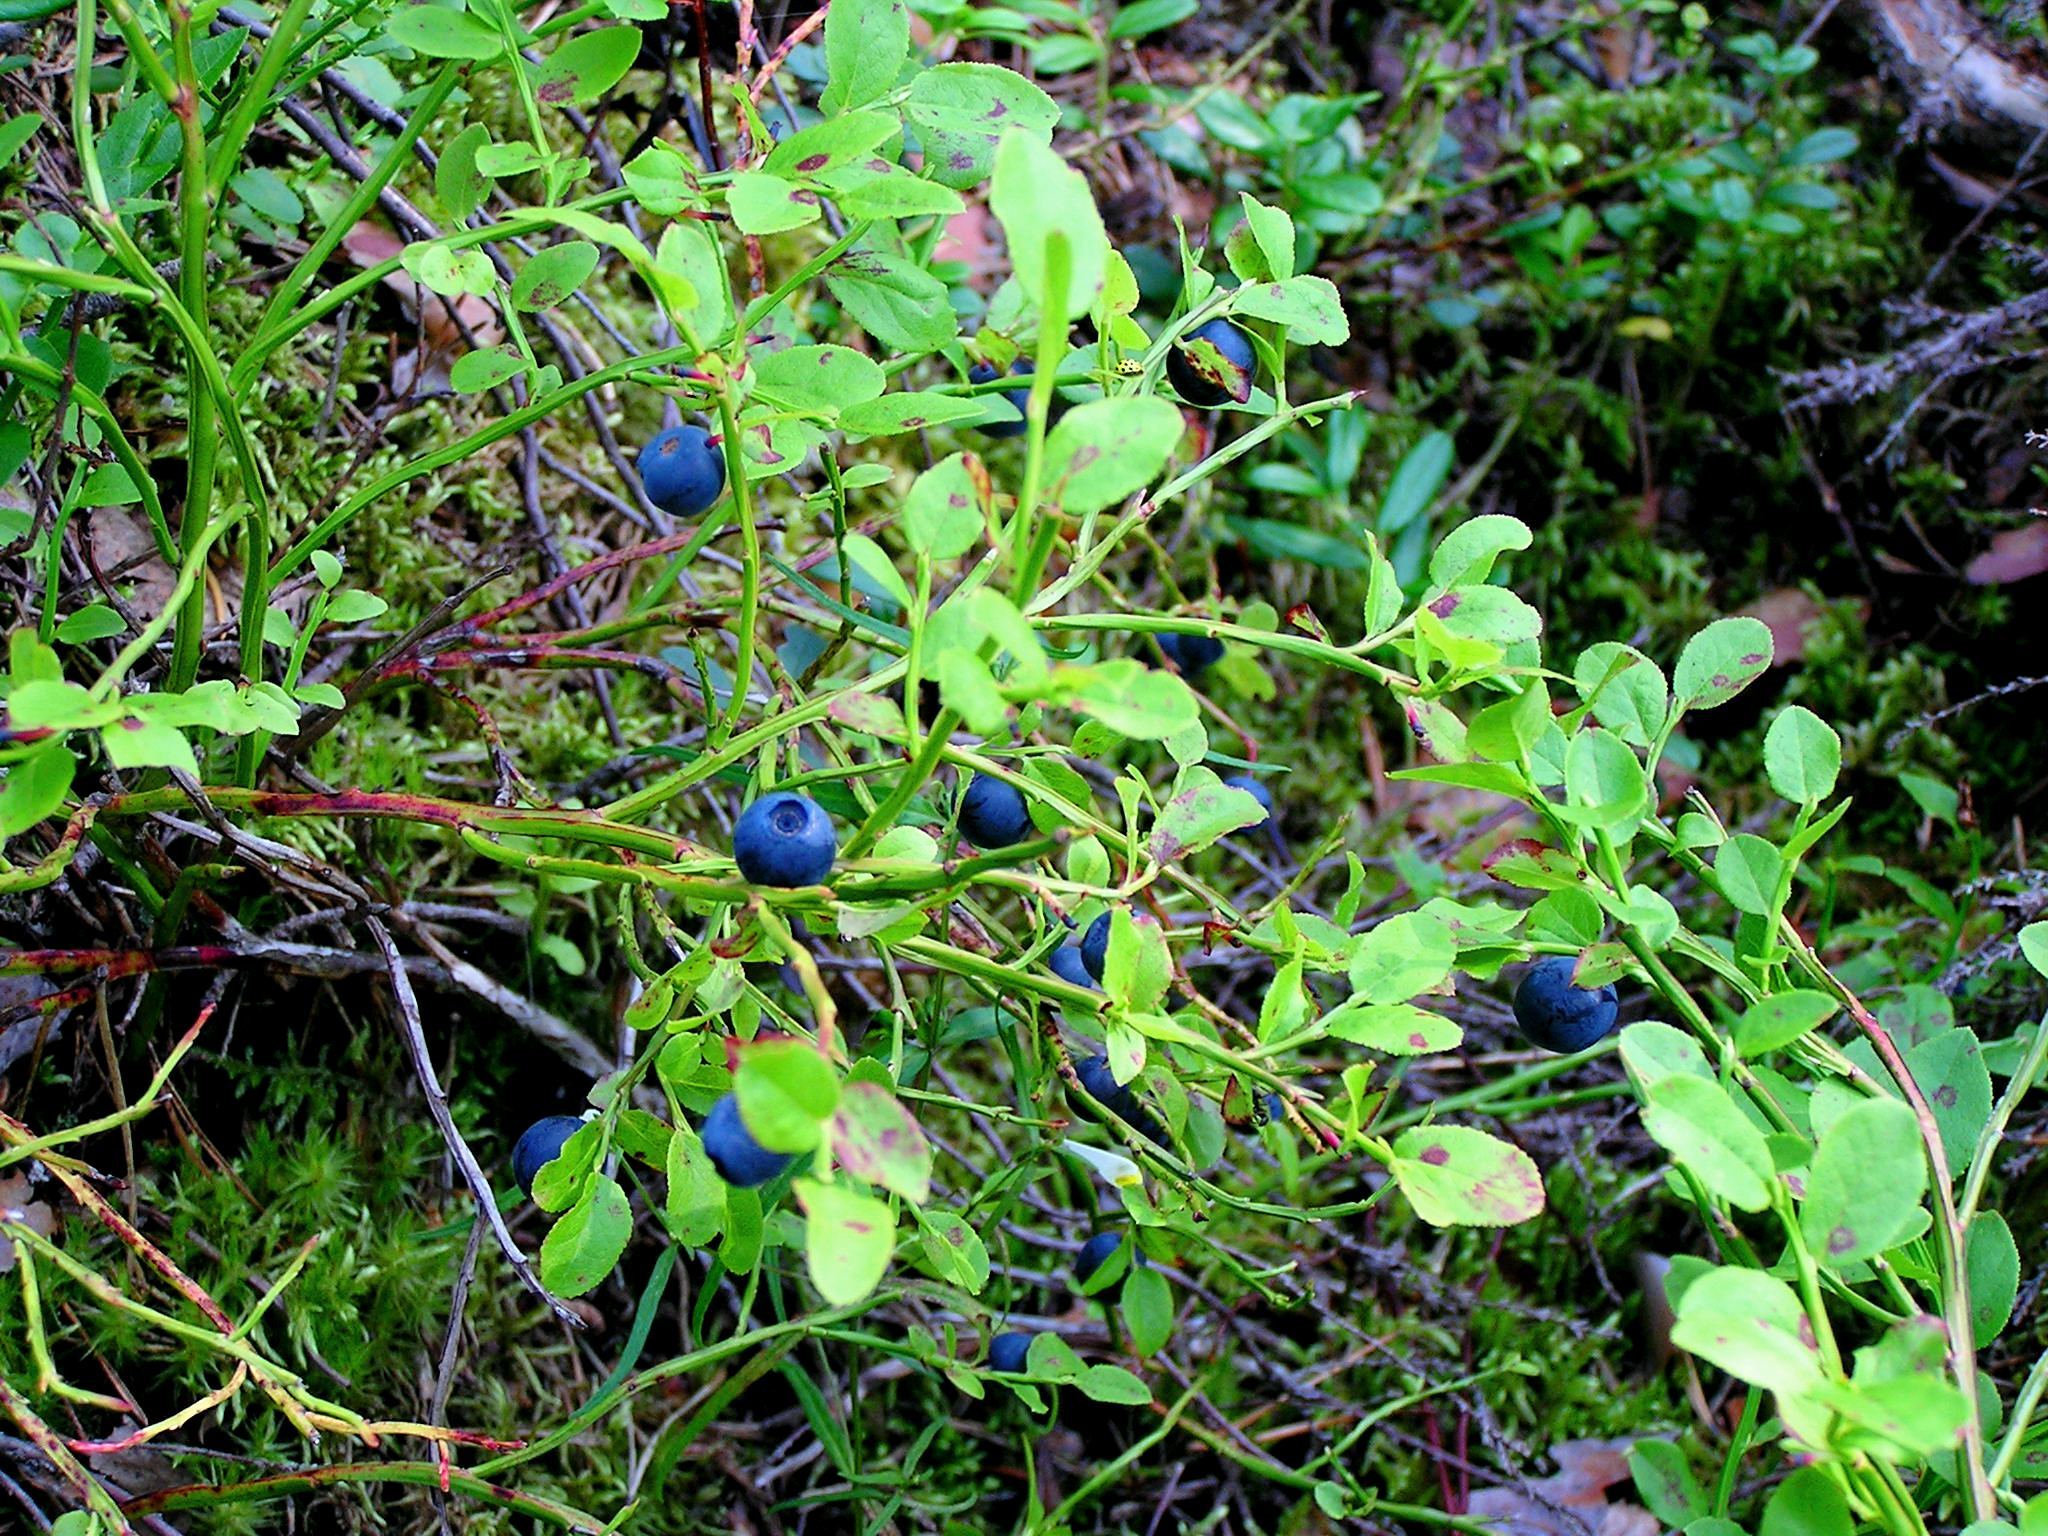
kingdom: Plantae
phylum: Tracheophyta
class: Magnoliopsida
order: Ericales
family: Ericaceae
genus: Vaccinium
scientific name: Vaccinium myrtillus
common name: Bilberry
